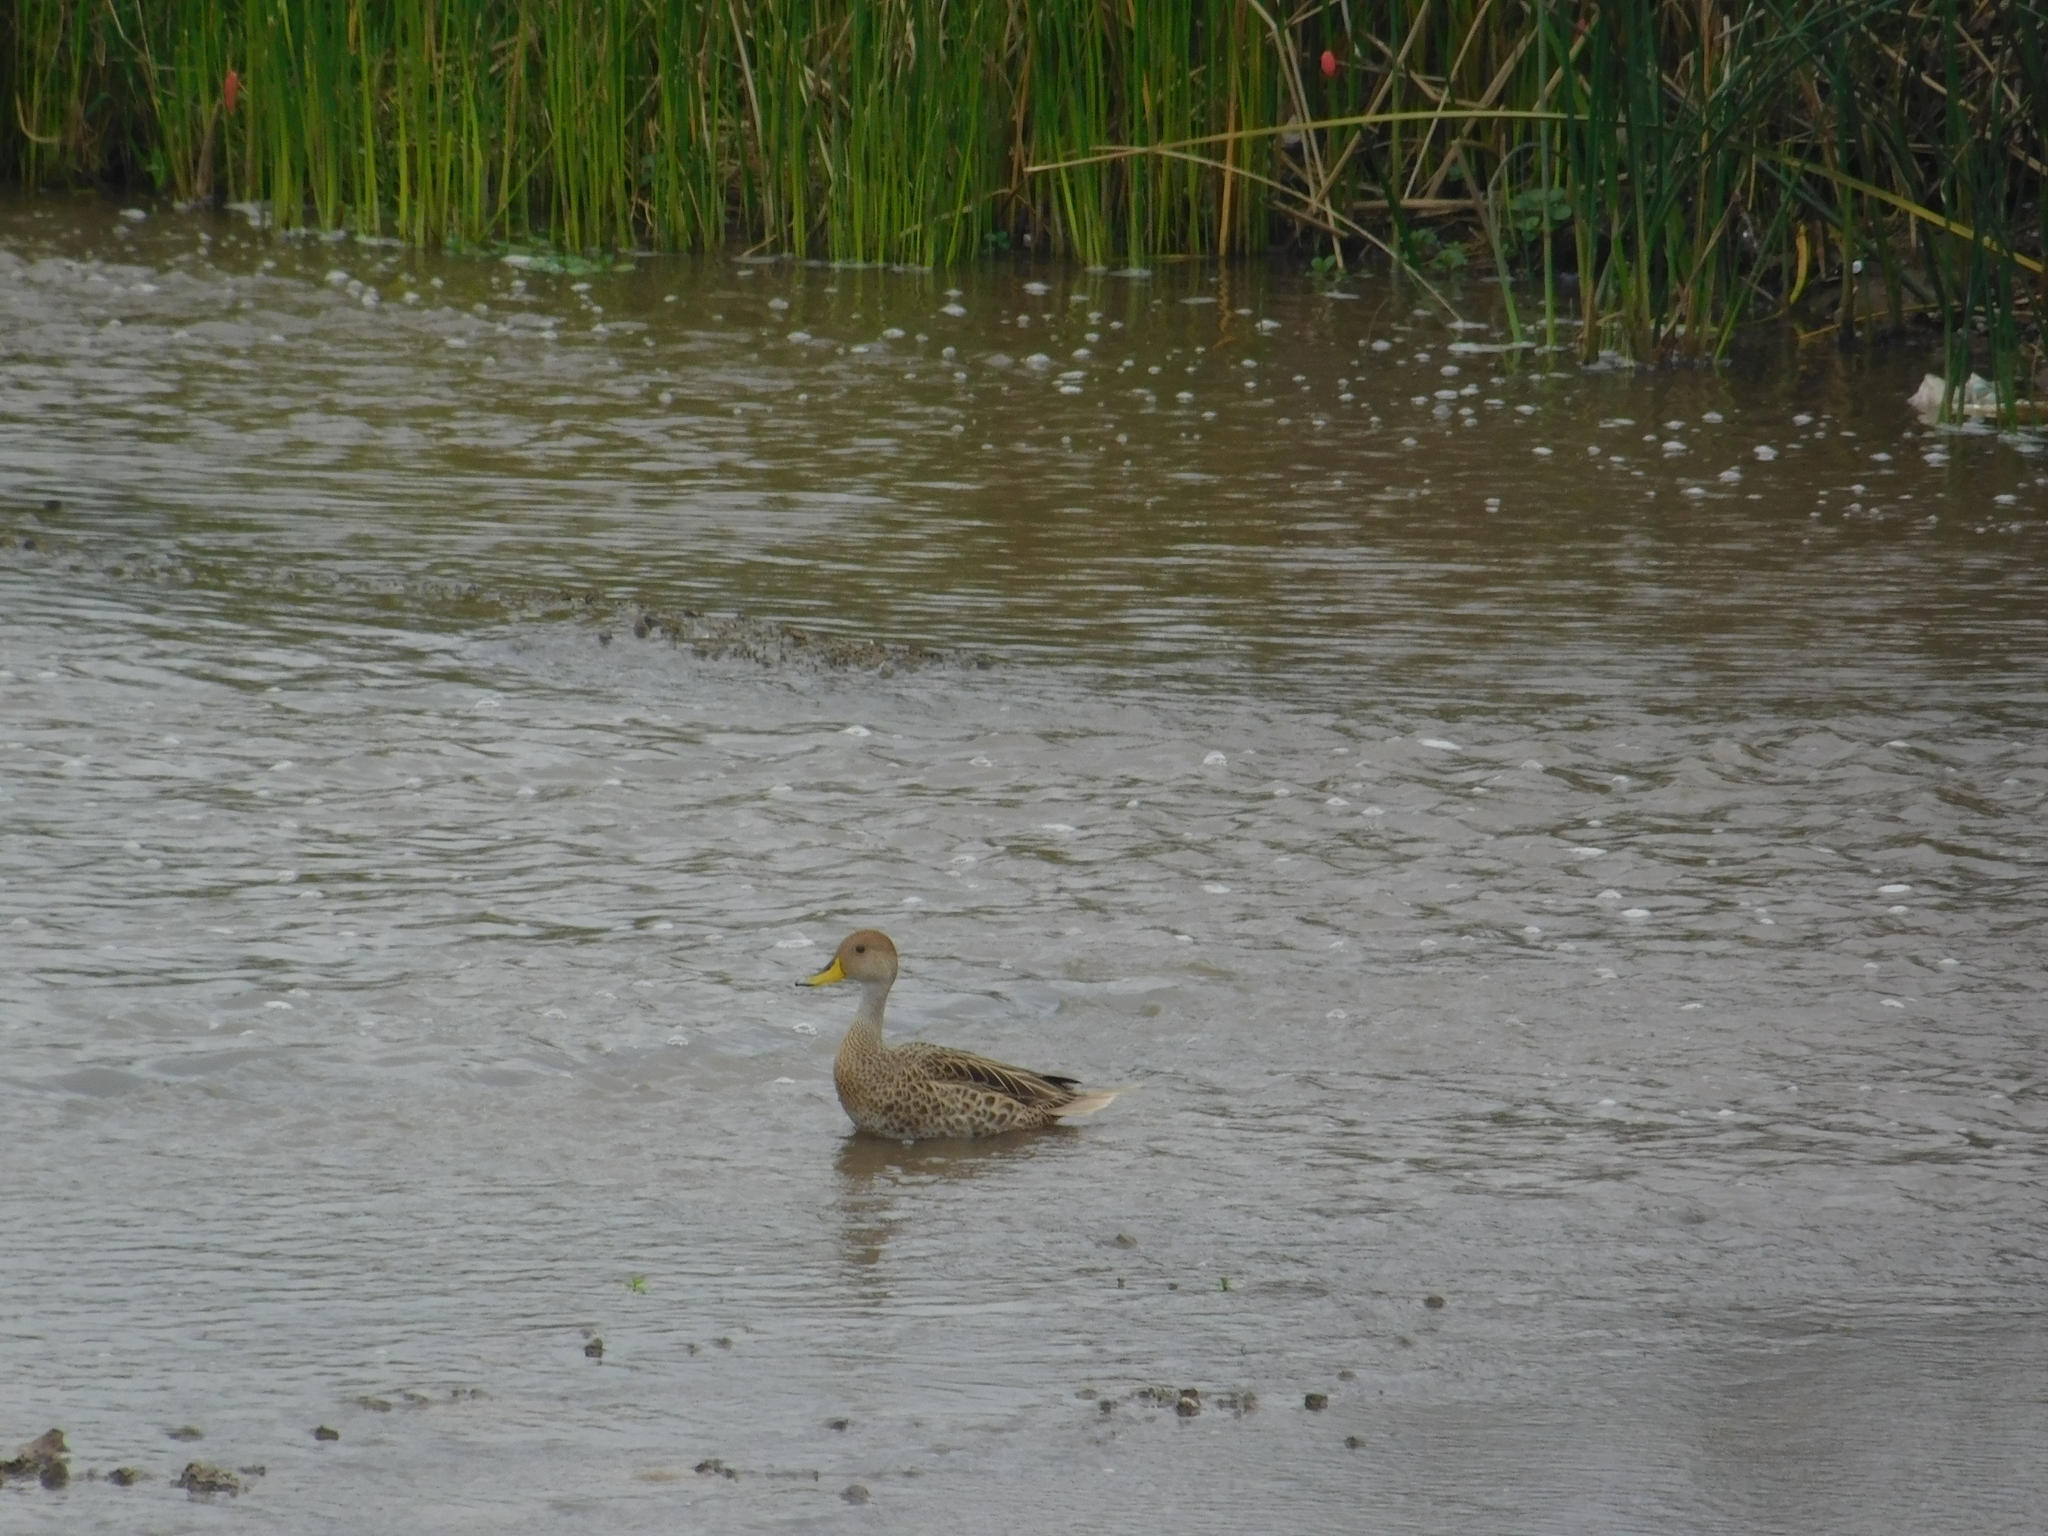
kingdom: Animalia
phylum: Chordata
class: Aves
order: Anseriformes
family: Anatidae
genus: Anas
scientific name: Anas georgica
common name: Yellow-billed pintail
